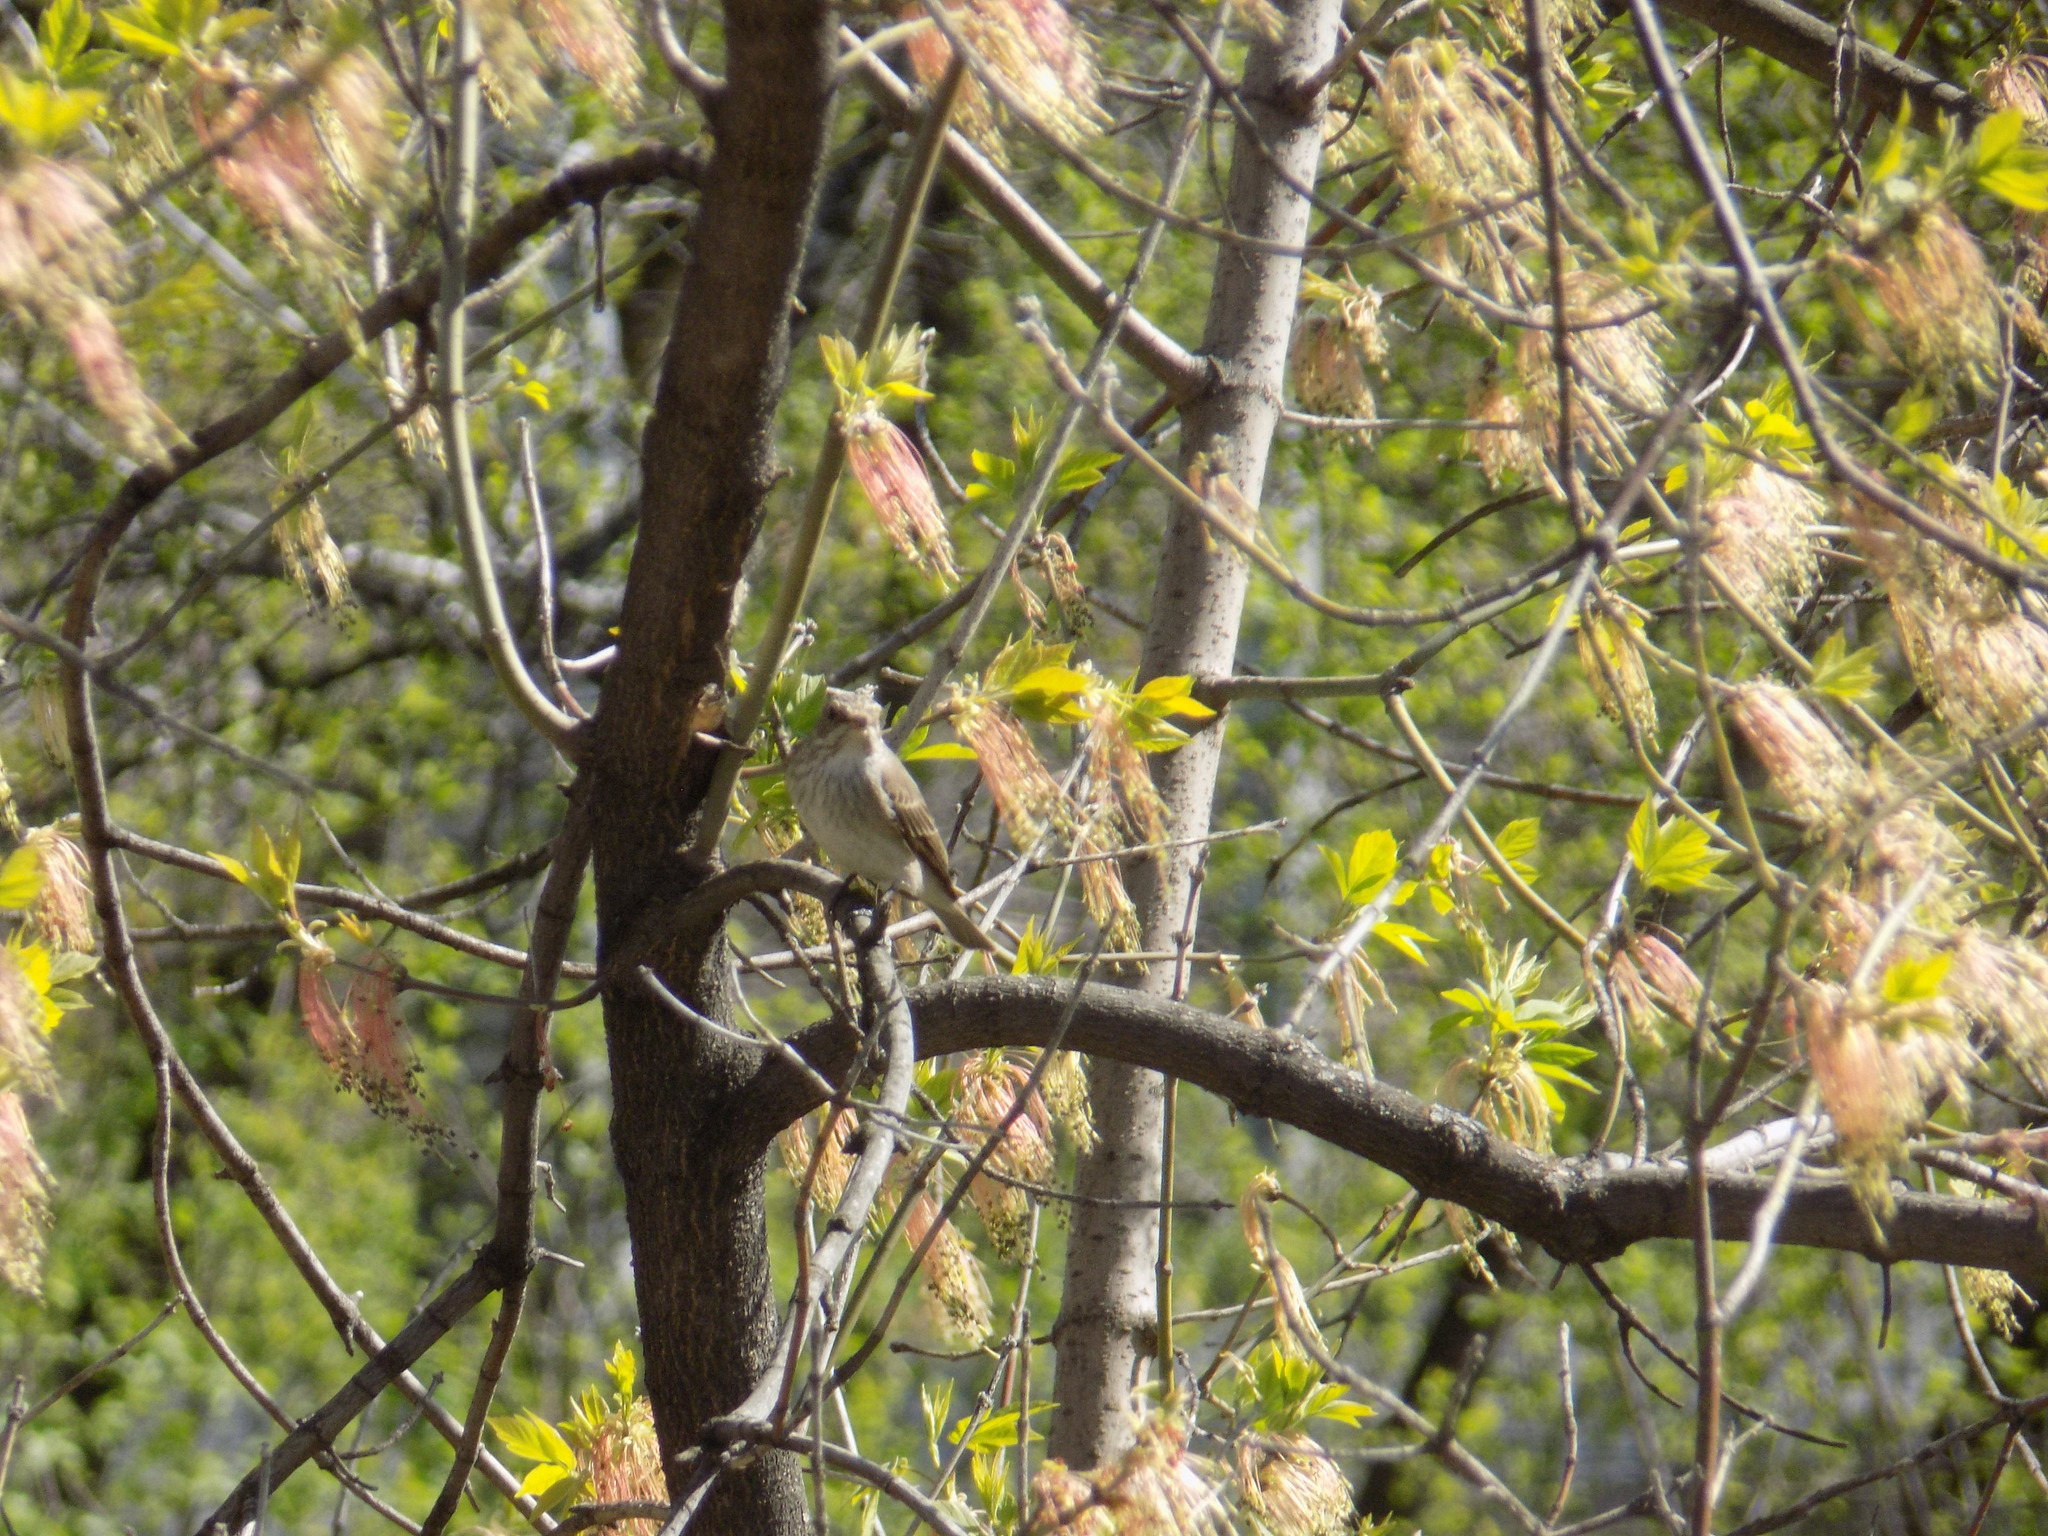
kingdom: Animalia
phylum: Chordata
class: Aves
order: Passeriformes
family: Muscicapidae
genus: Muscicapa
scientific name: Muscicapa striata
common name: Spotted flycatcher
